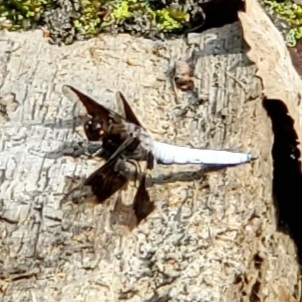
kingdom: Animalia
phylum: Arthropoda
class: Insecta
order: Odonata
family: Libellulidae
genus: Plathemis
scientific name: Plathemis lydia
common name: Common whitetail
